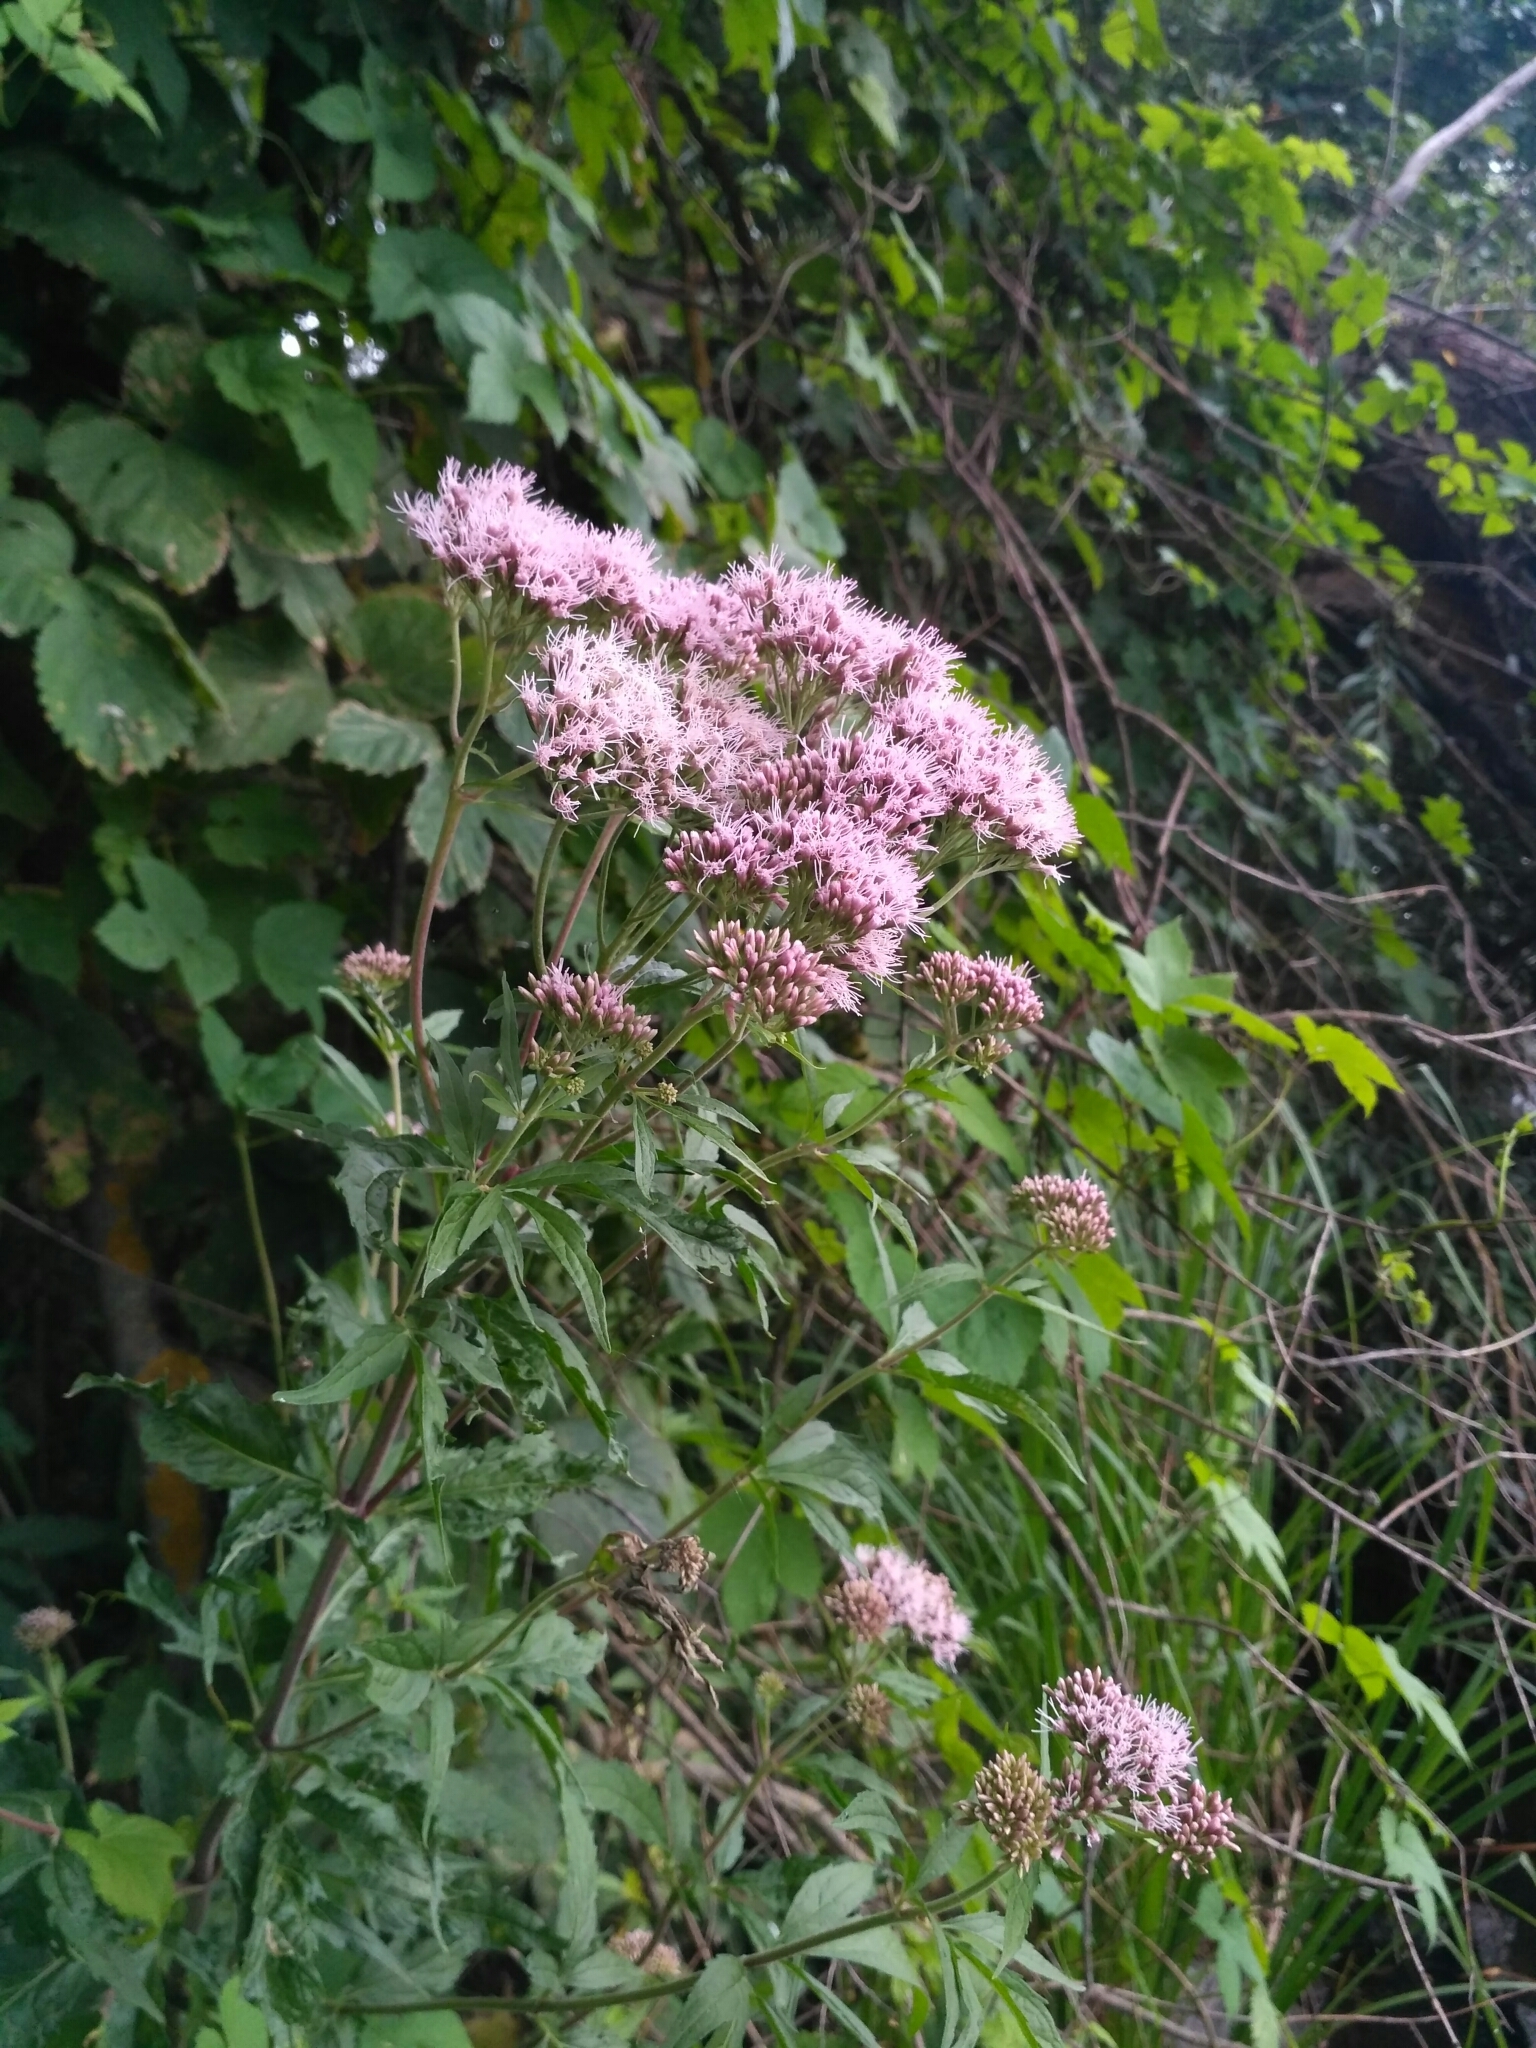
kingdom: Plantae
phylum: Tracheophyta
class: Magnoliopsida
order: Asterales
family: Asteraceae
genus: Eupatorium
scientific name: Eupatorium cannabinum
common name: Hemp-agrimony
